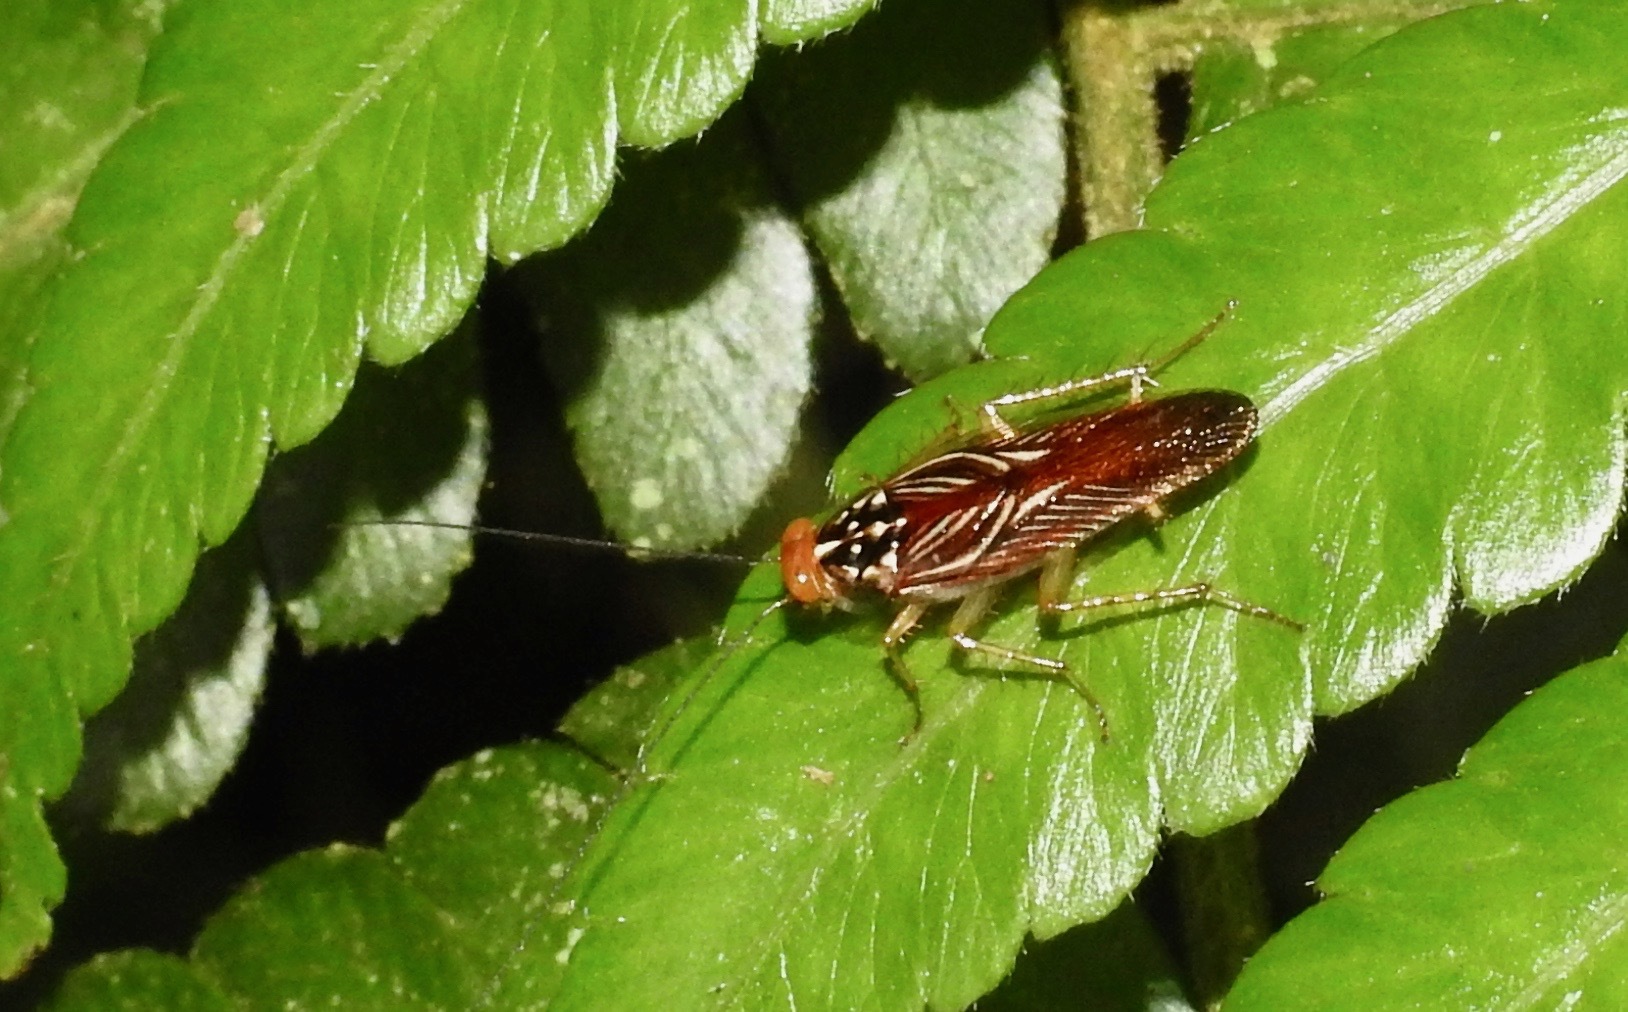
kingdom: Animalia
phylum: Arthropoda
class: Insecta
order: Blattodea
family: Ectobiidae
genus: Euphyllodromia
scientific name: Euphyllodromia angustata
